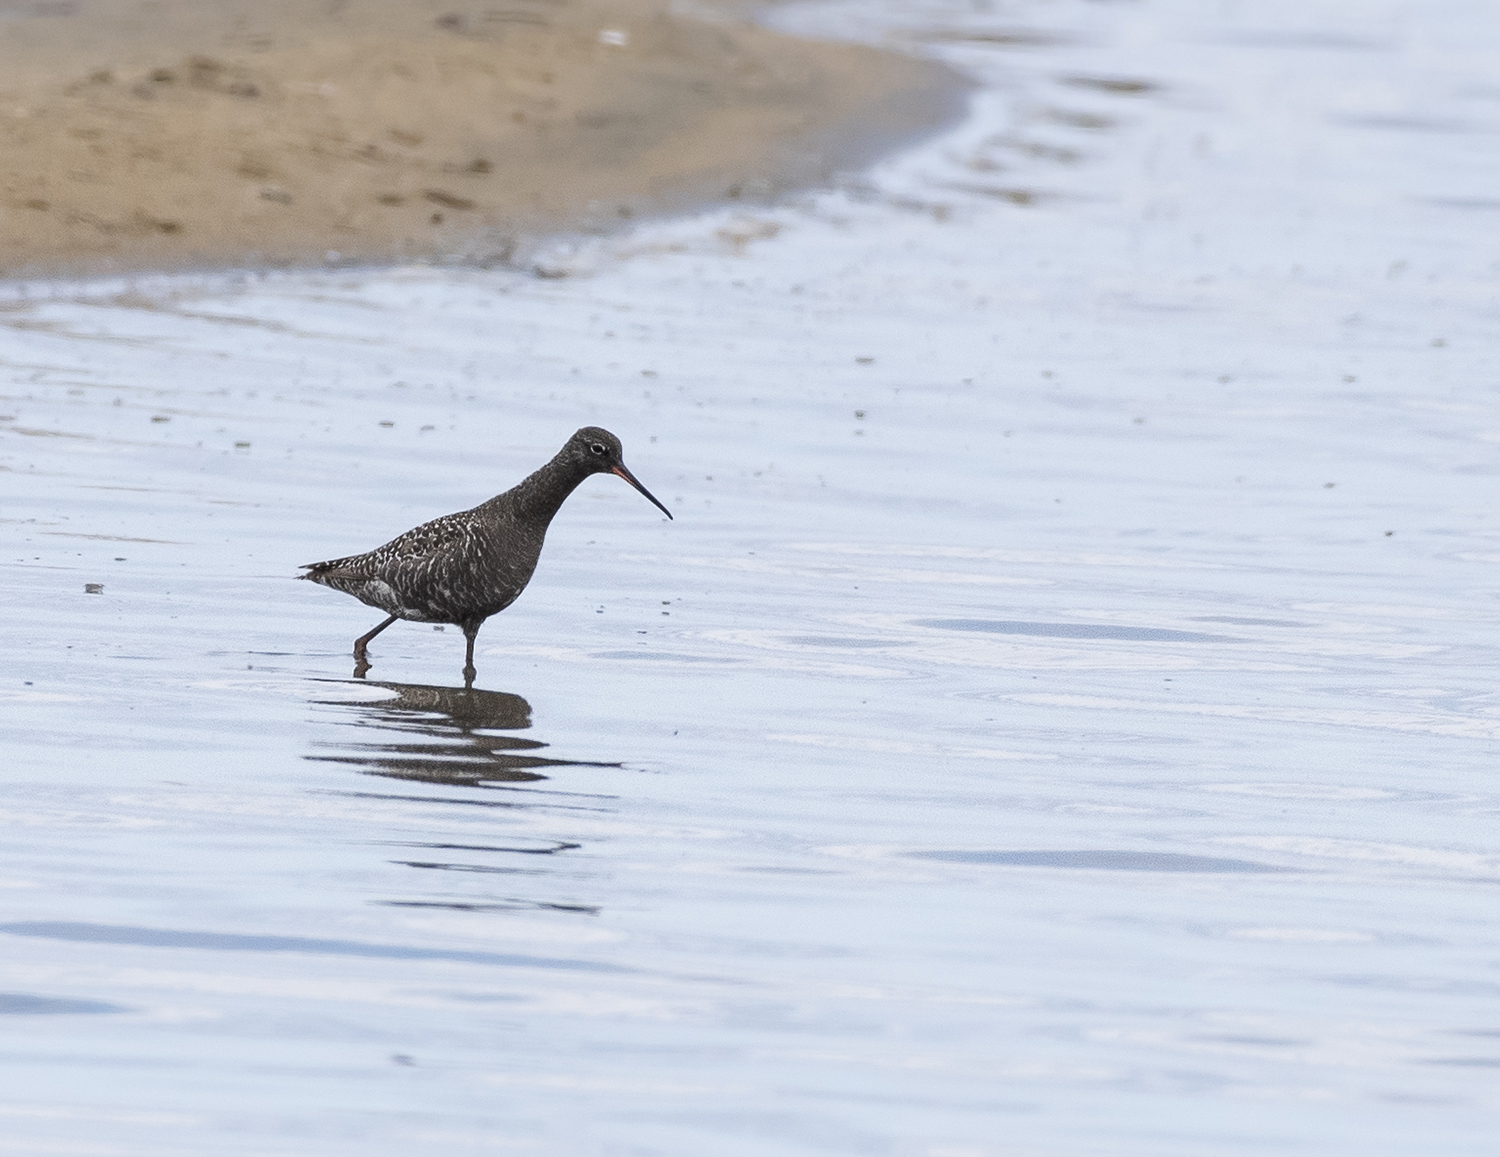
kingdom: Animalia
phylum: Chordata
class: Aves
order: Charadriiformes
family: Scolopacidae
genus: Tringa
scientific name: Tringa erythropus
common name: Spotted redshank
